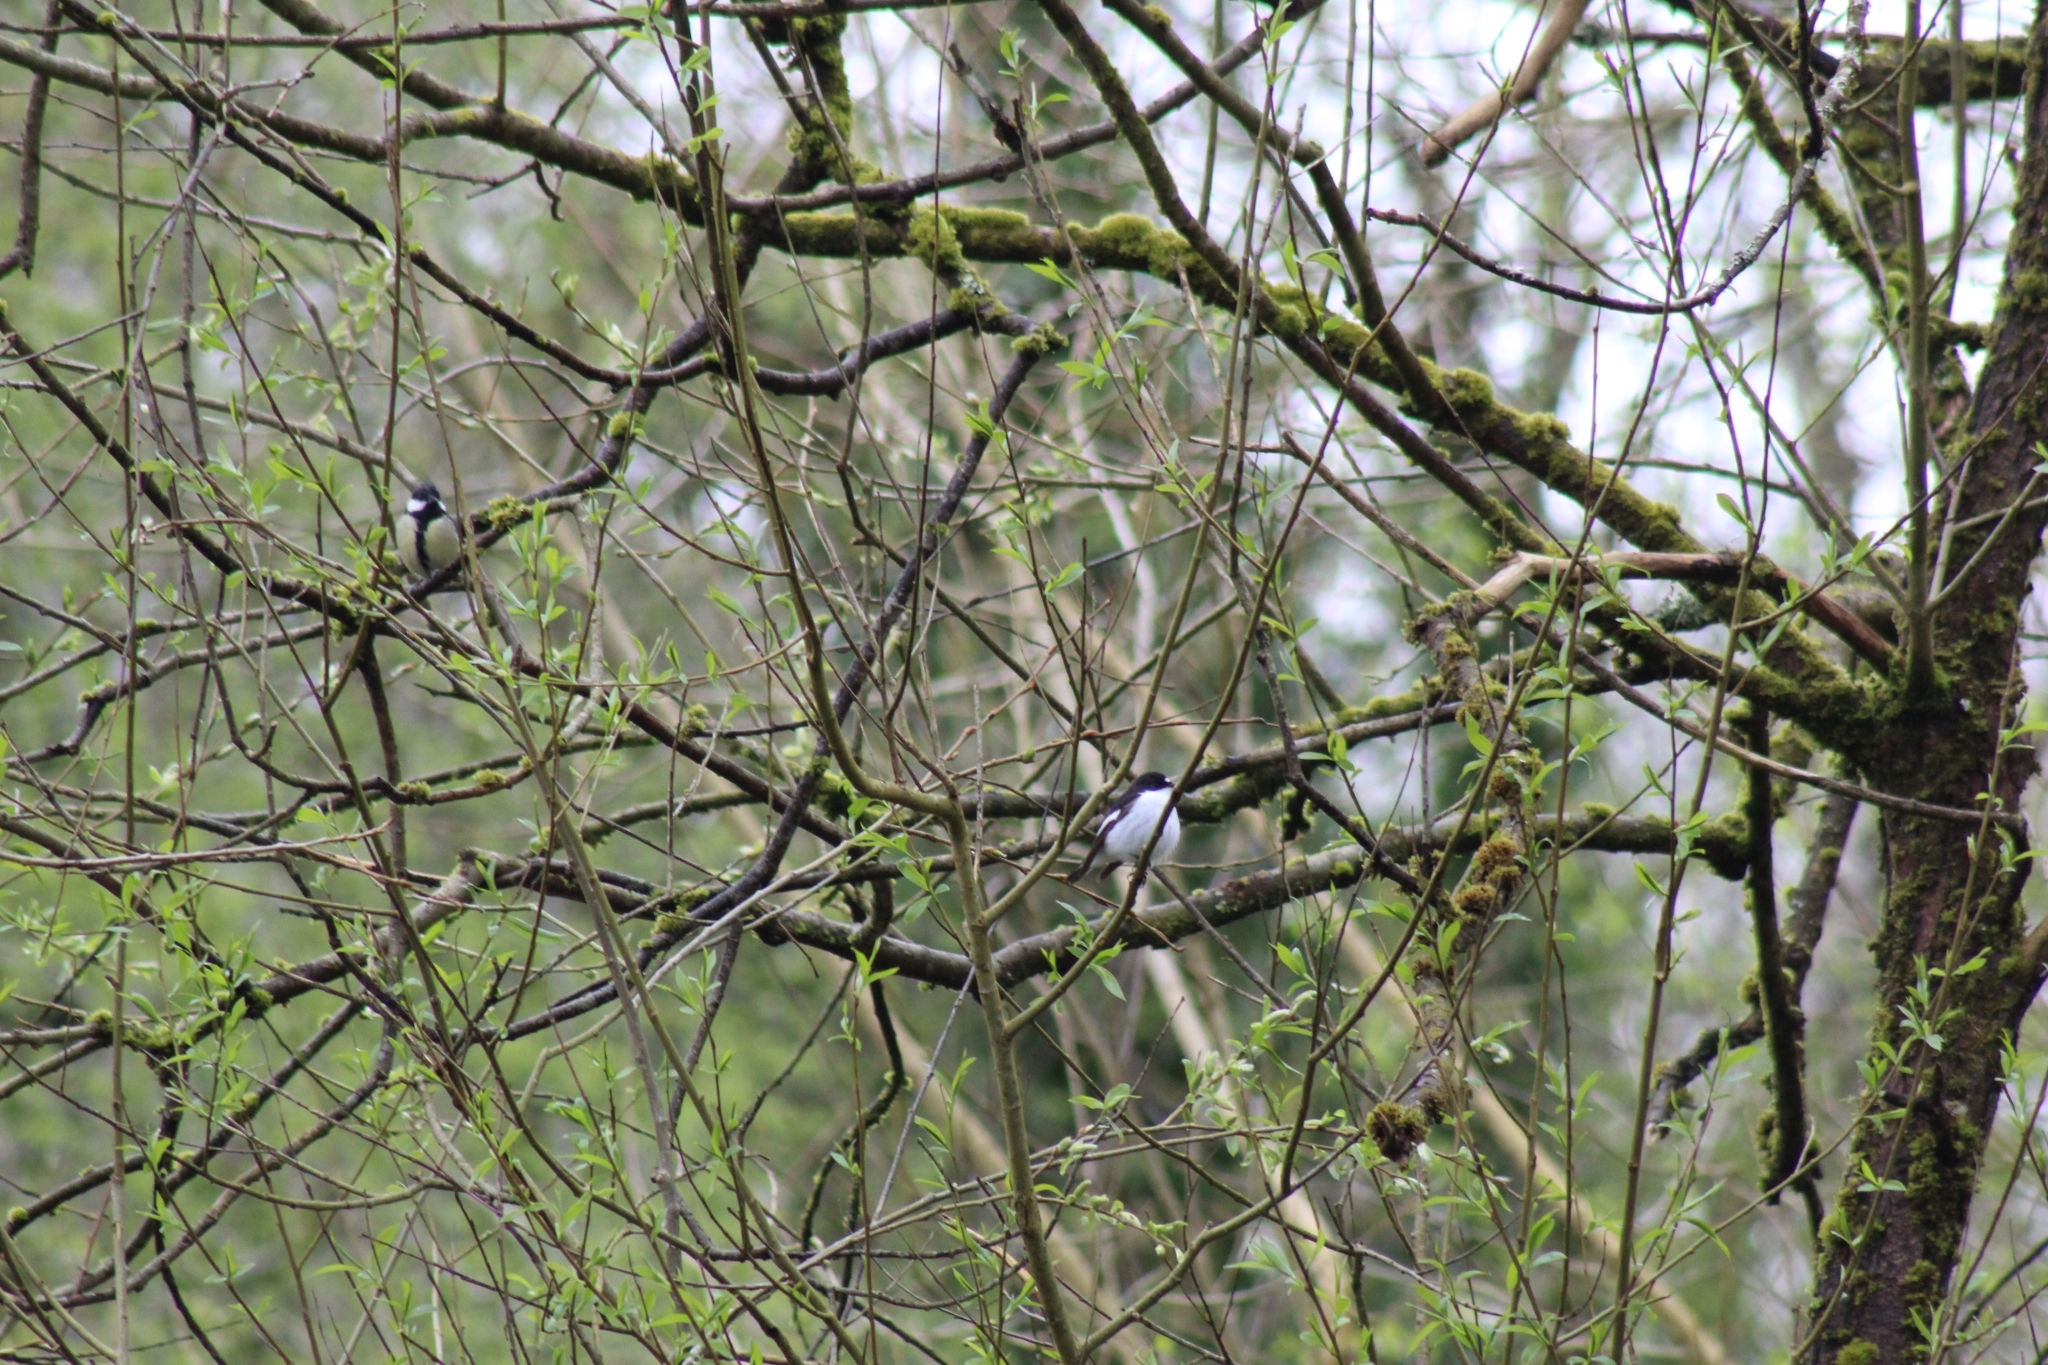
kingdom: Animalia
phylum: Chordata
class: Aves
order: Passeriformes
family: Muscicapidae
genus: Ficedula
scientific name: Ficedula hypoleuca
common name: European pied flycatcher
